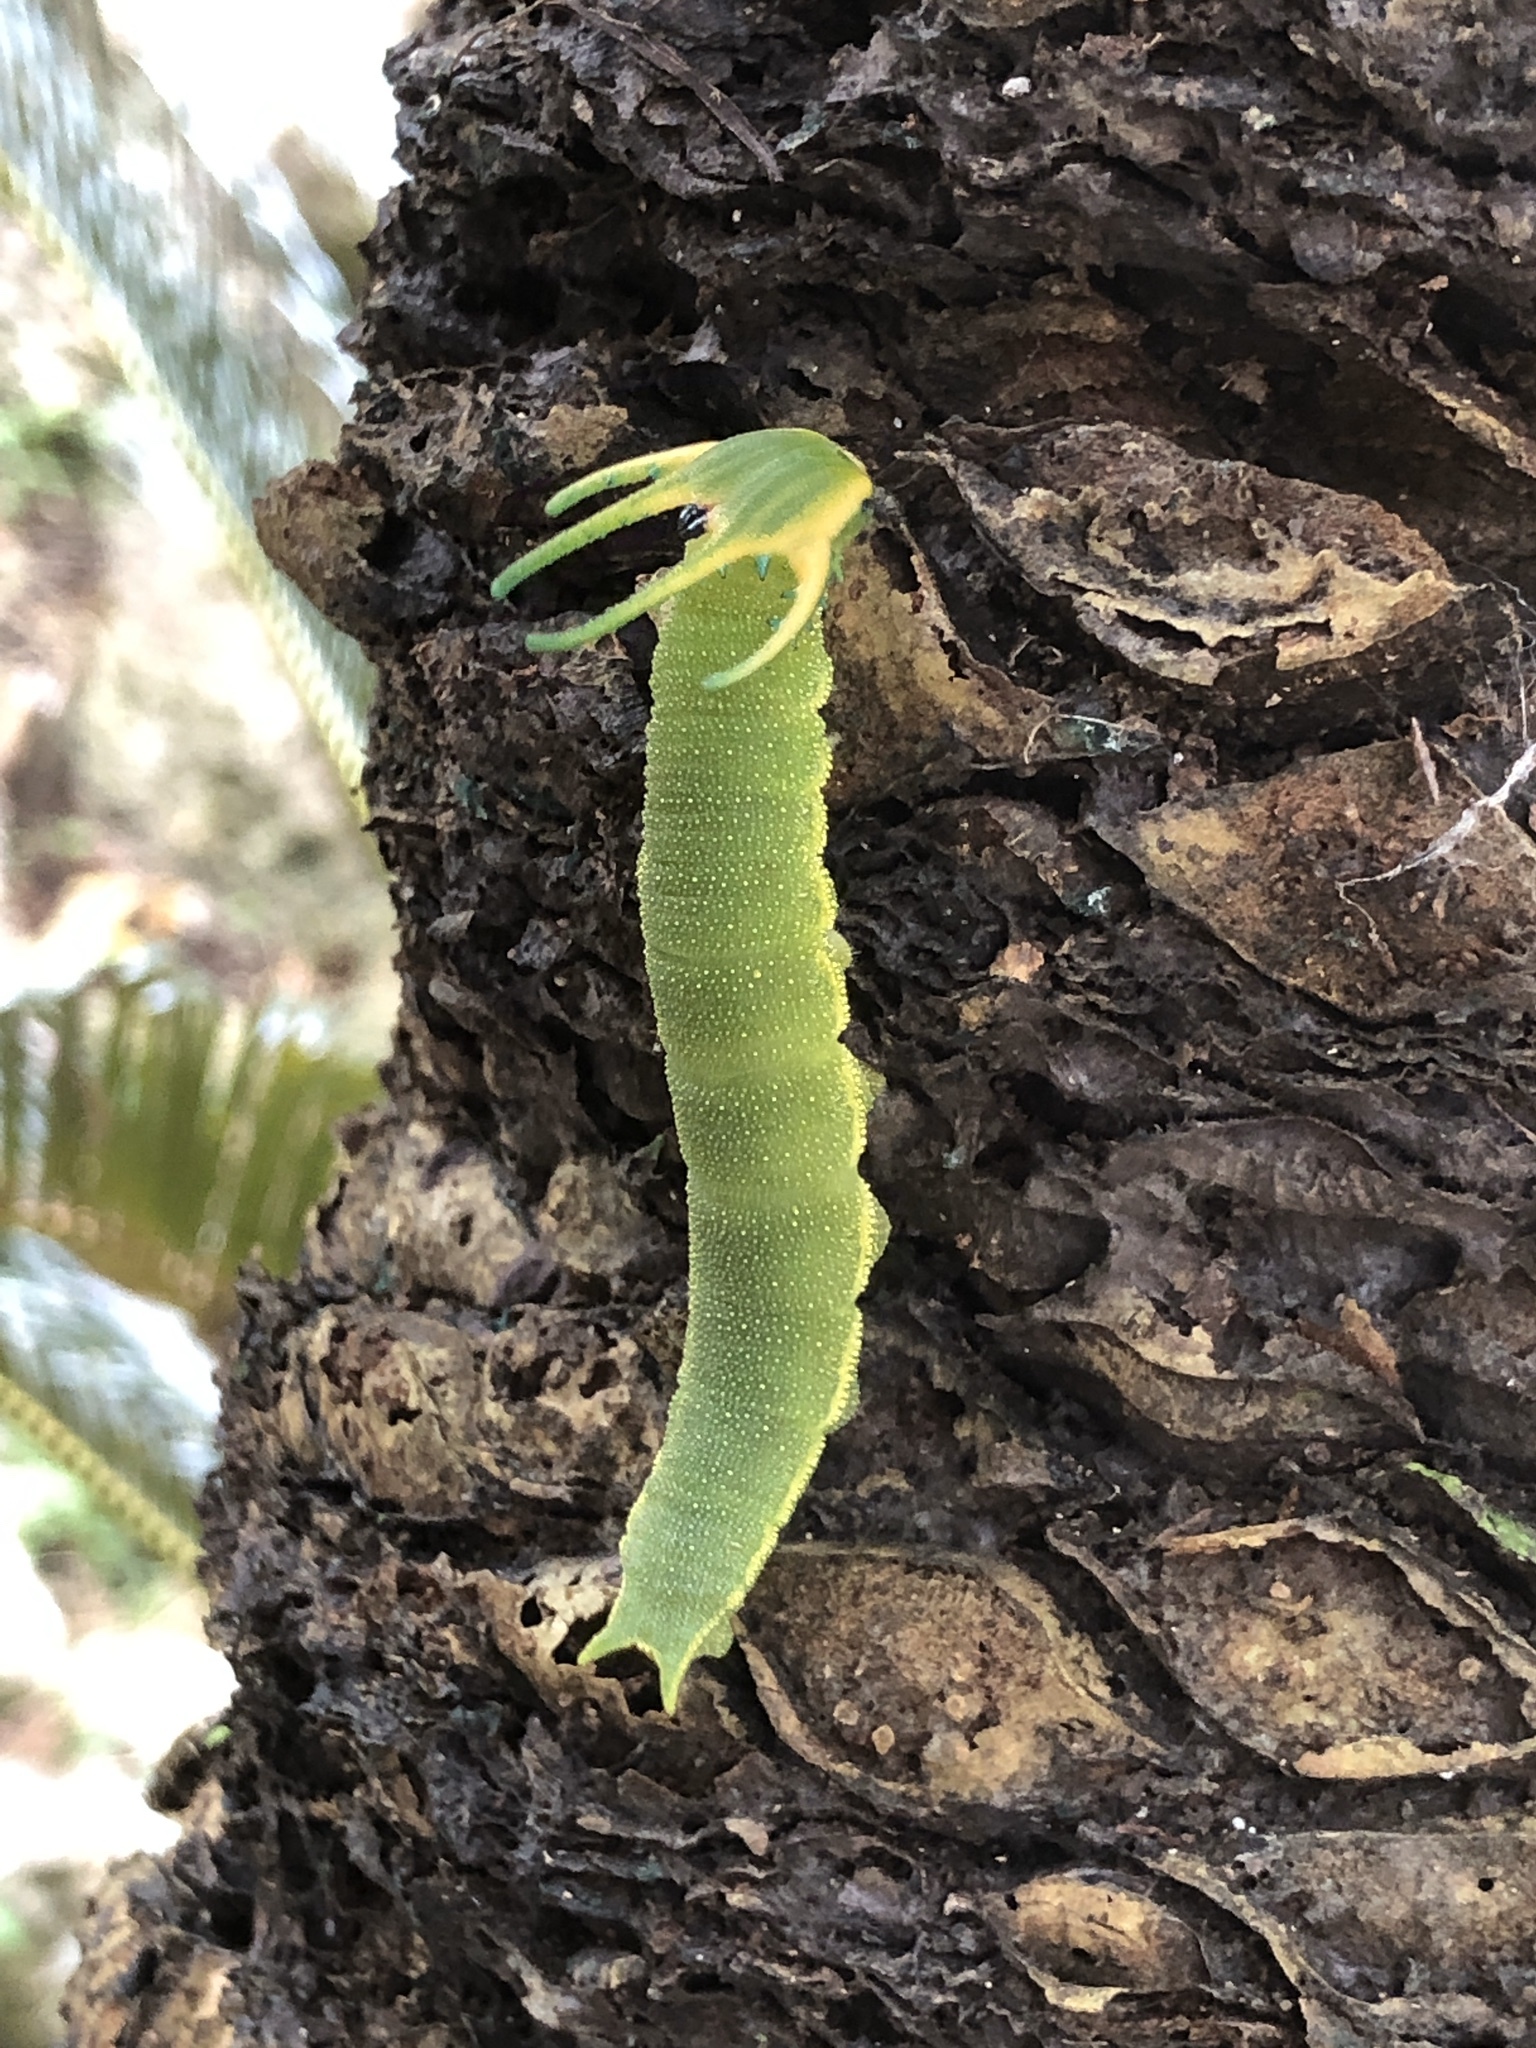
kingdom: Animalia
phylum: Arthropoda
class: Insecta
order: Lepidoptera
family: Nymphalidae
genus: Polyura
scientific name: Polyura
